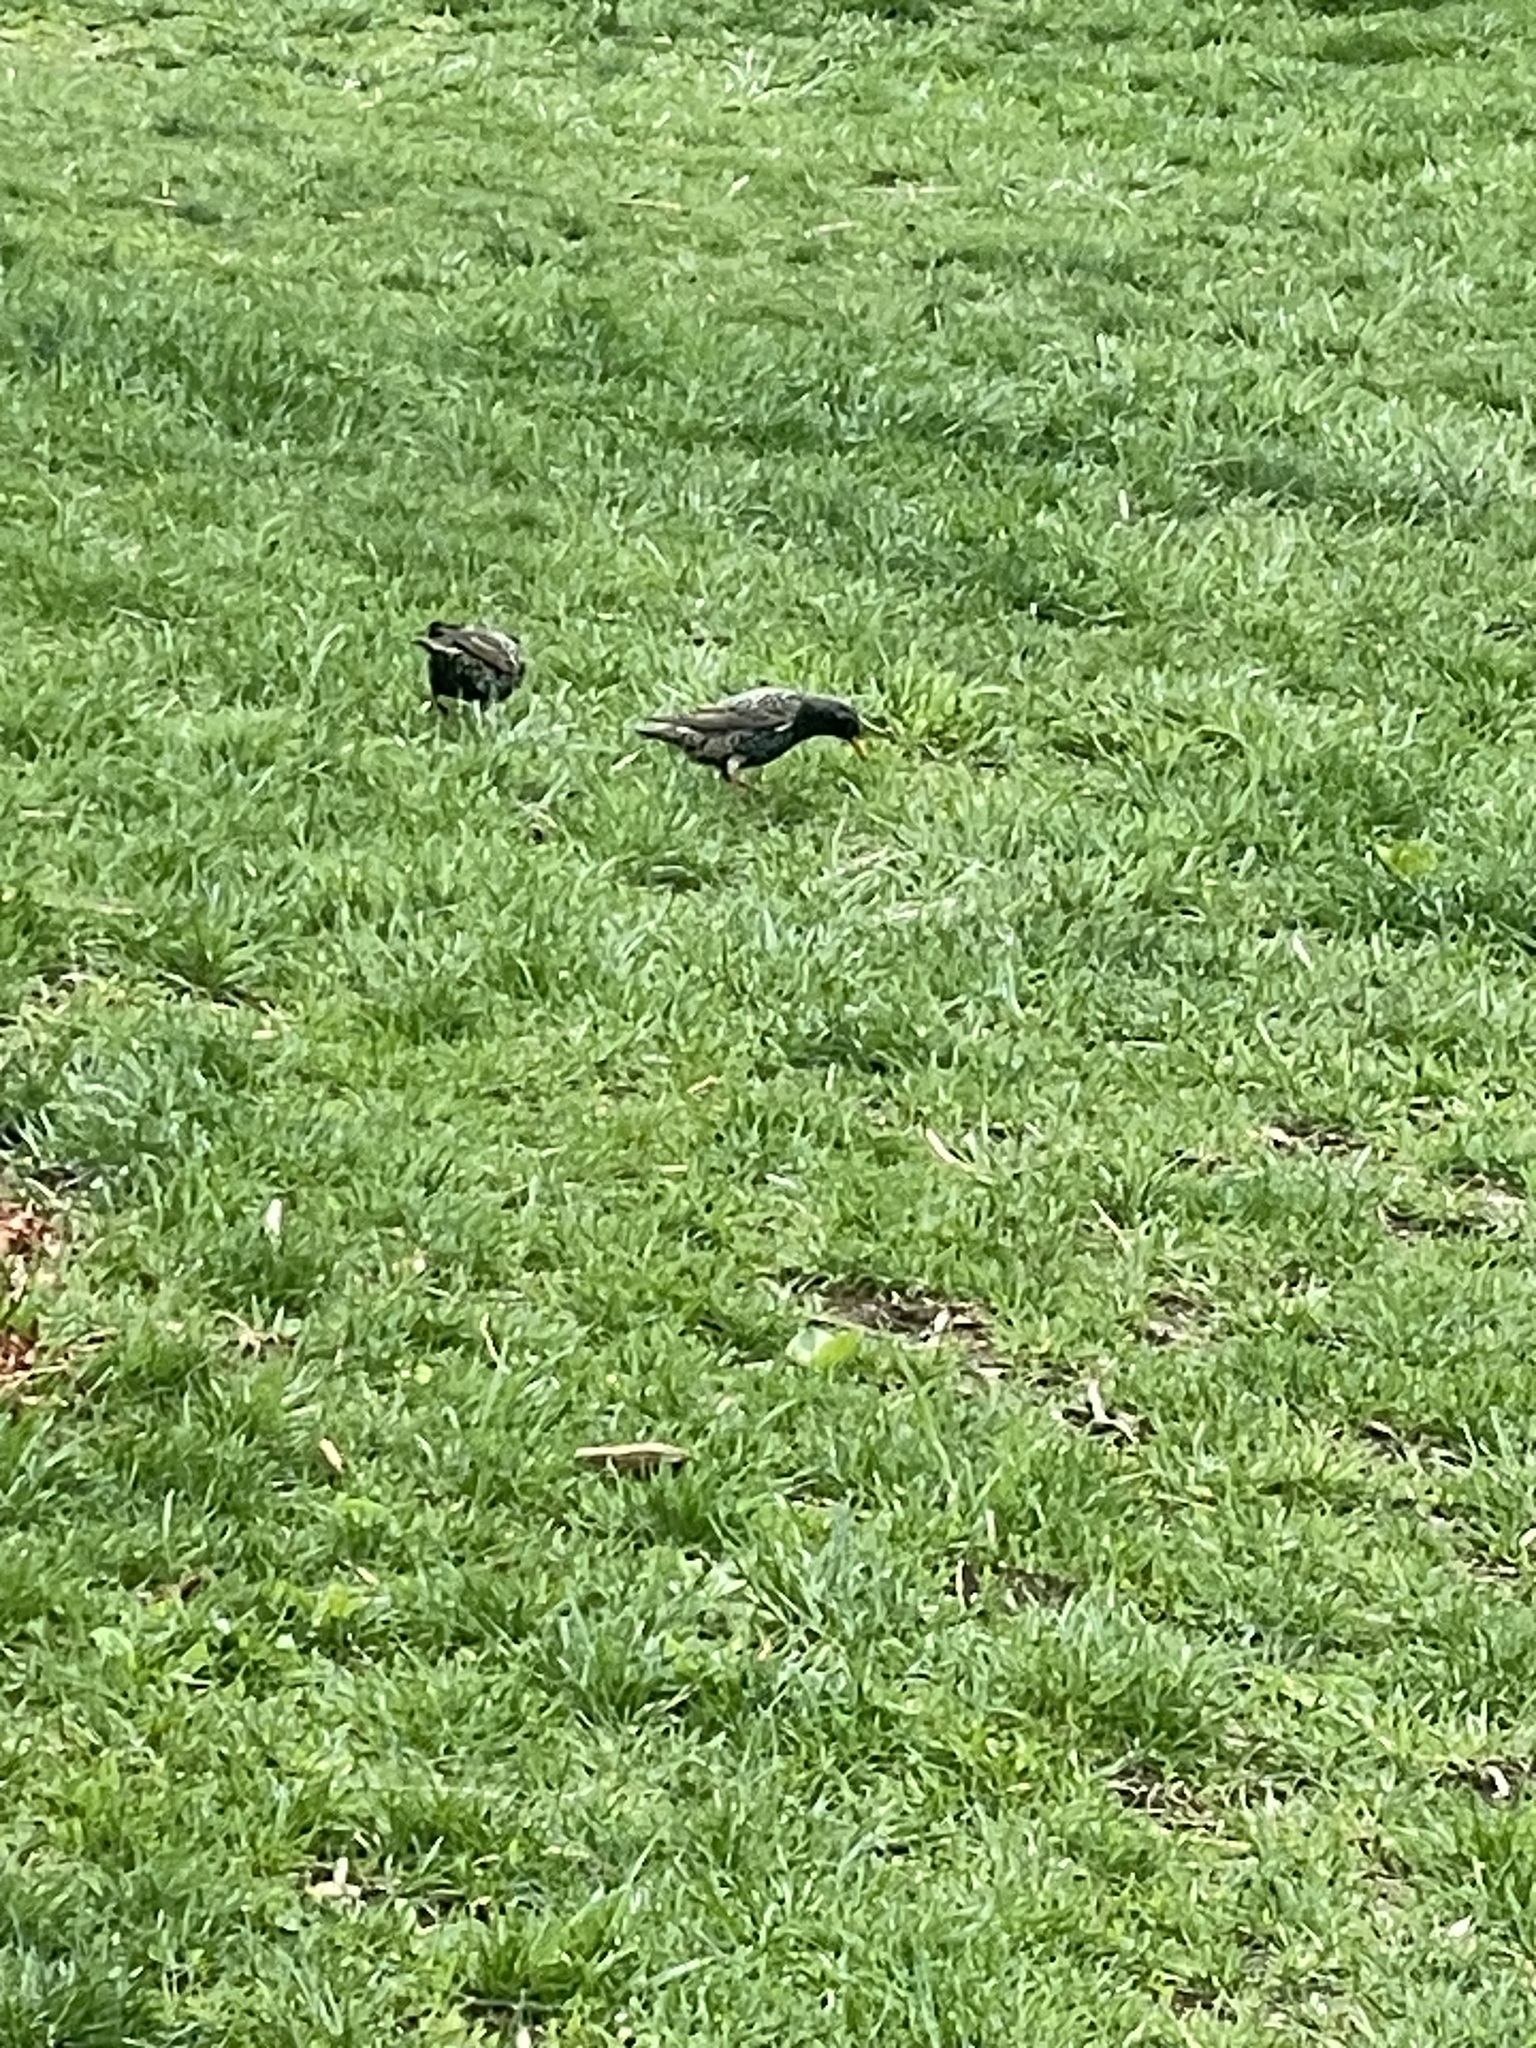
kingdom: Animalia
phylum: Chordata
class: Aves
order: Passeriformes
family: Sturnidae
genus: Sturnus
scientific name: Sturnus vulgaris
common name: Common starling
